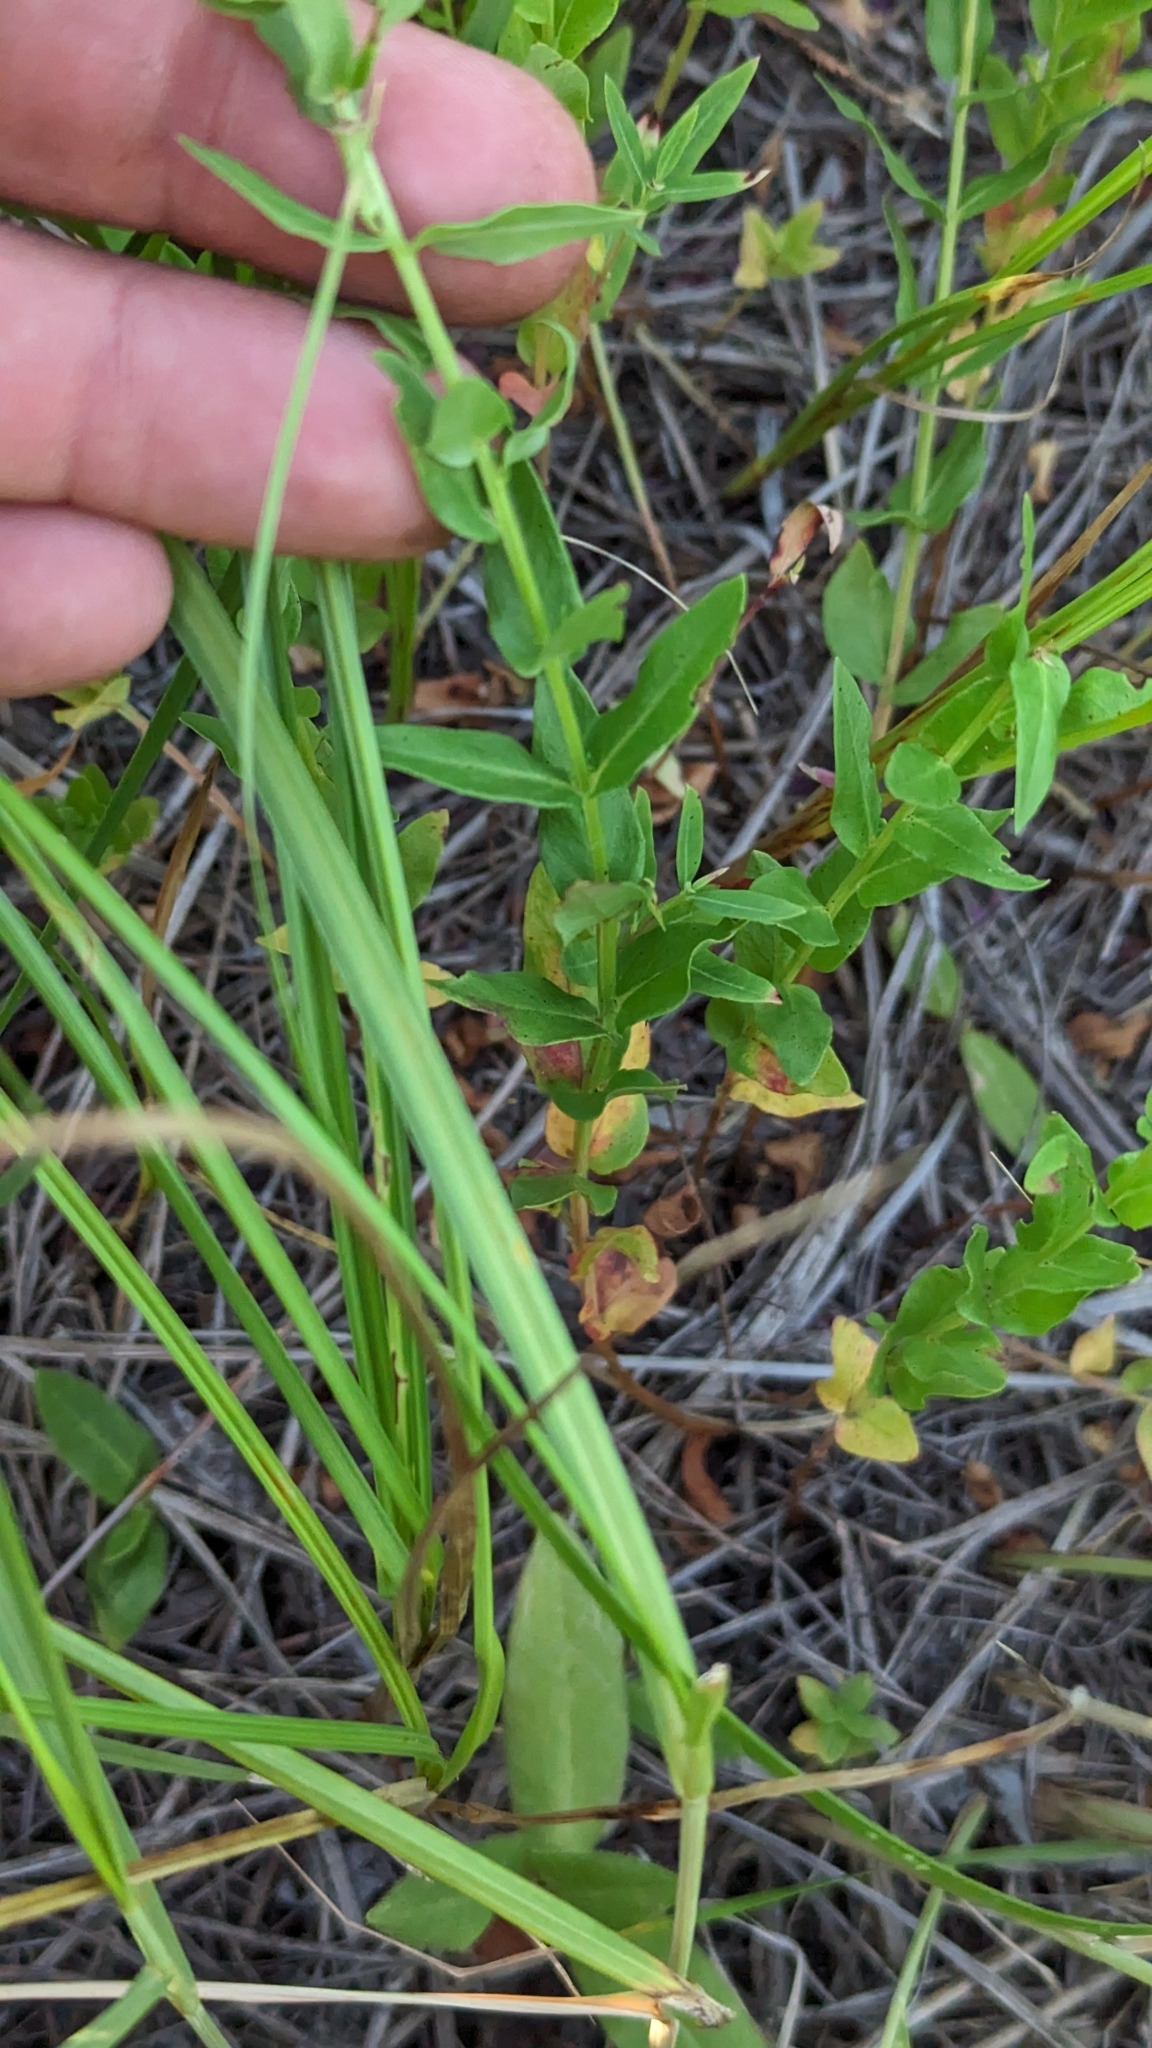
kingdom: Plantae
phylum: Tracheophyta
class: Magnoliopsida
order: Myrtales
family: Lythraceae
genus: Lythrum
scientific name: Lythrum alatum
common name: Winged loosestrife
